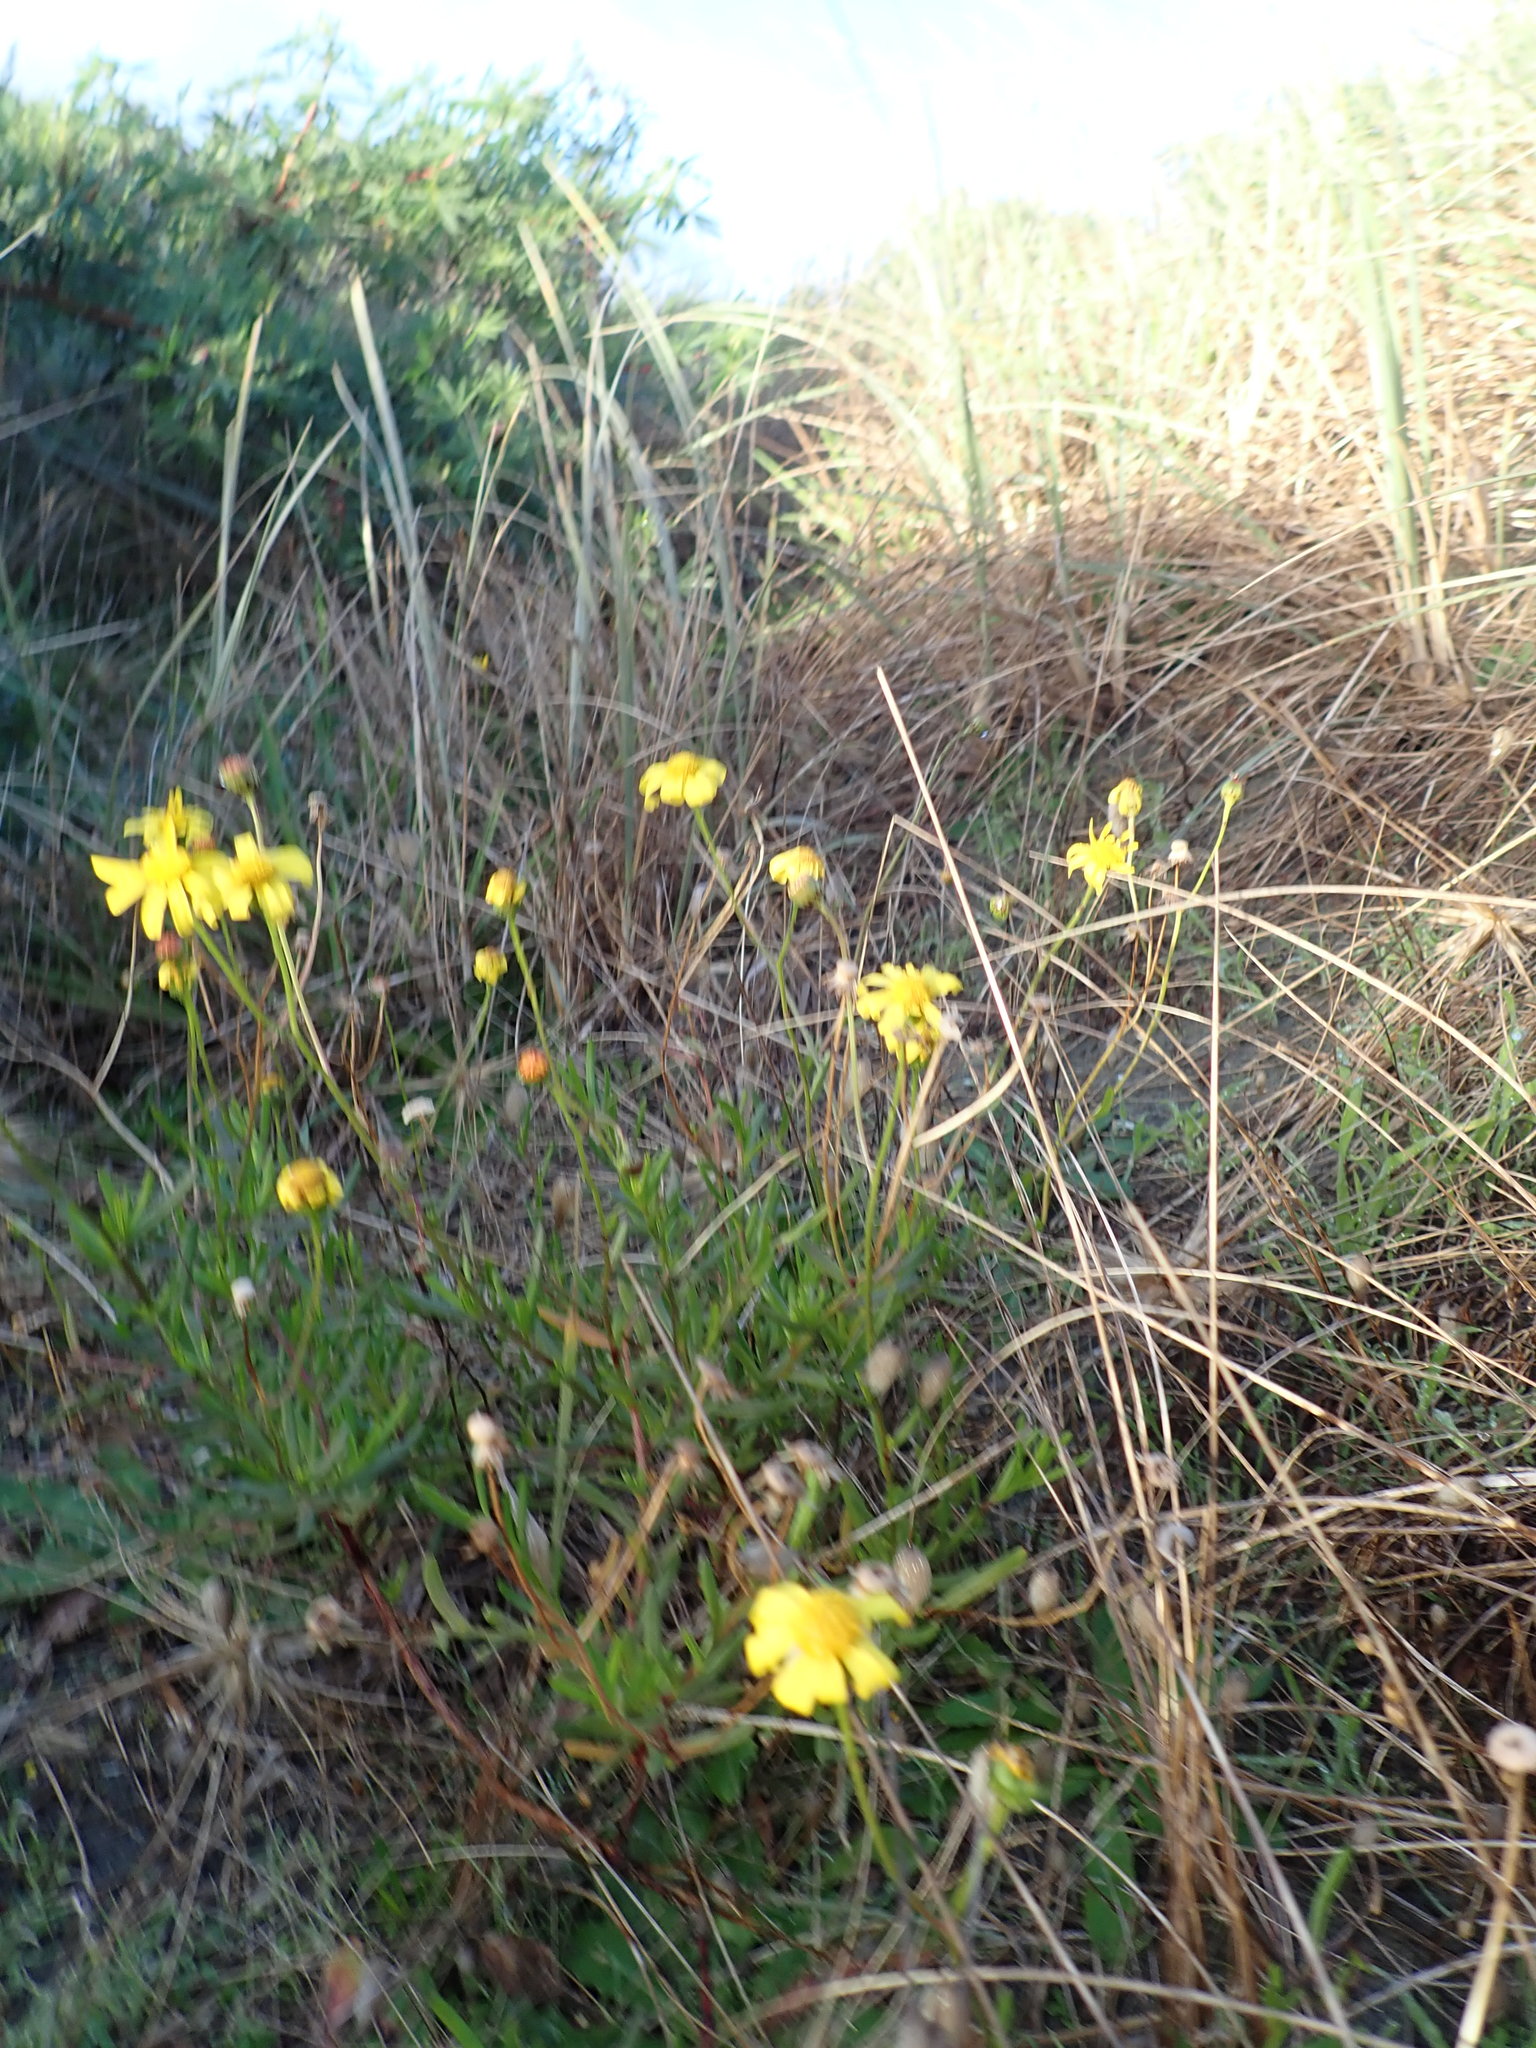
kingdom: Plantae
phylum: Tracheophyta
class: Magnoliopsida
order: Asterales
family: Asteraceae
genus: Senecio
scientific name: Senecio skirrhodon
